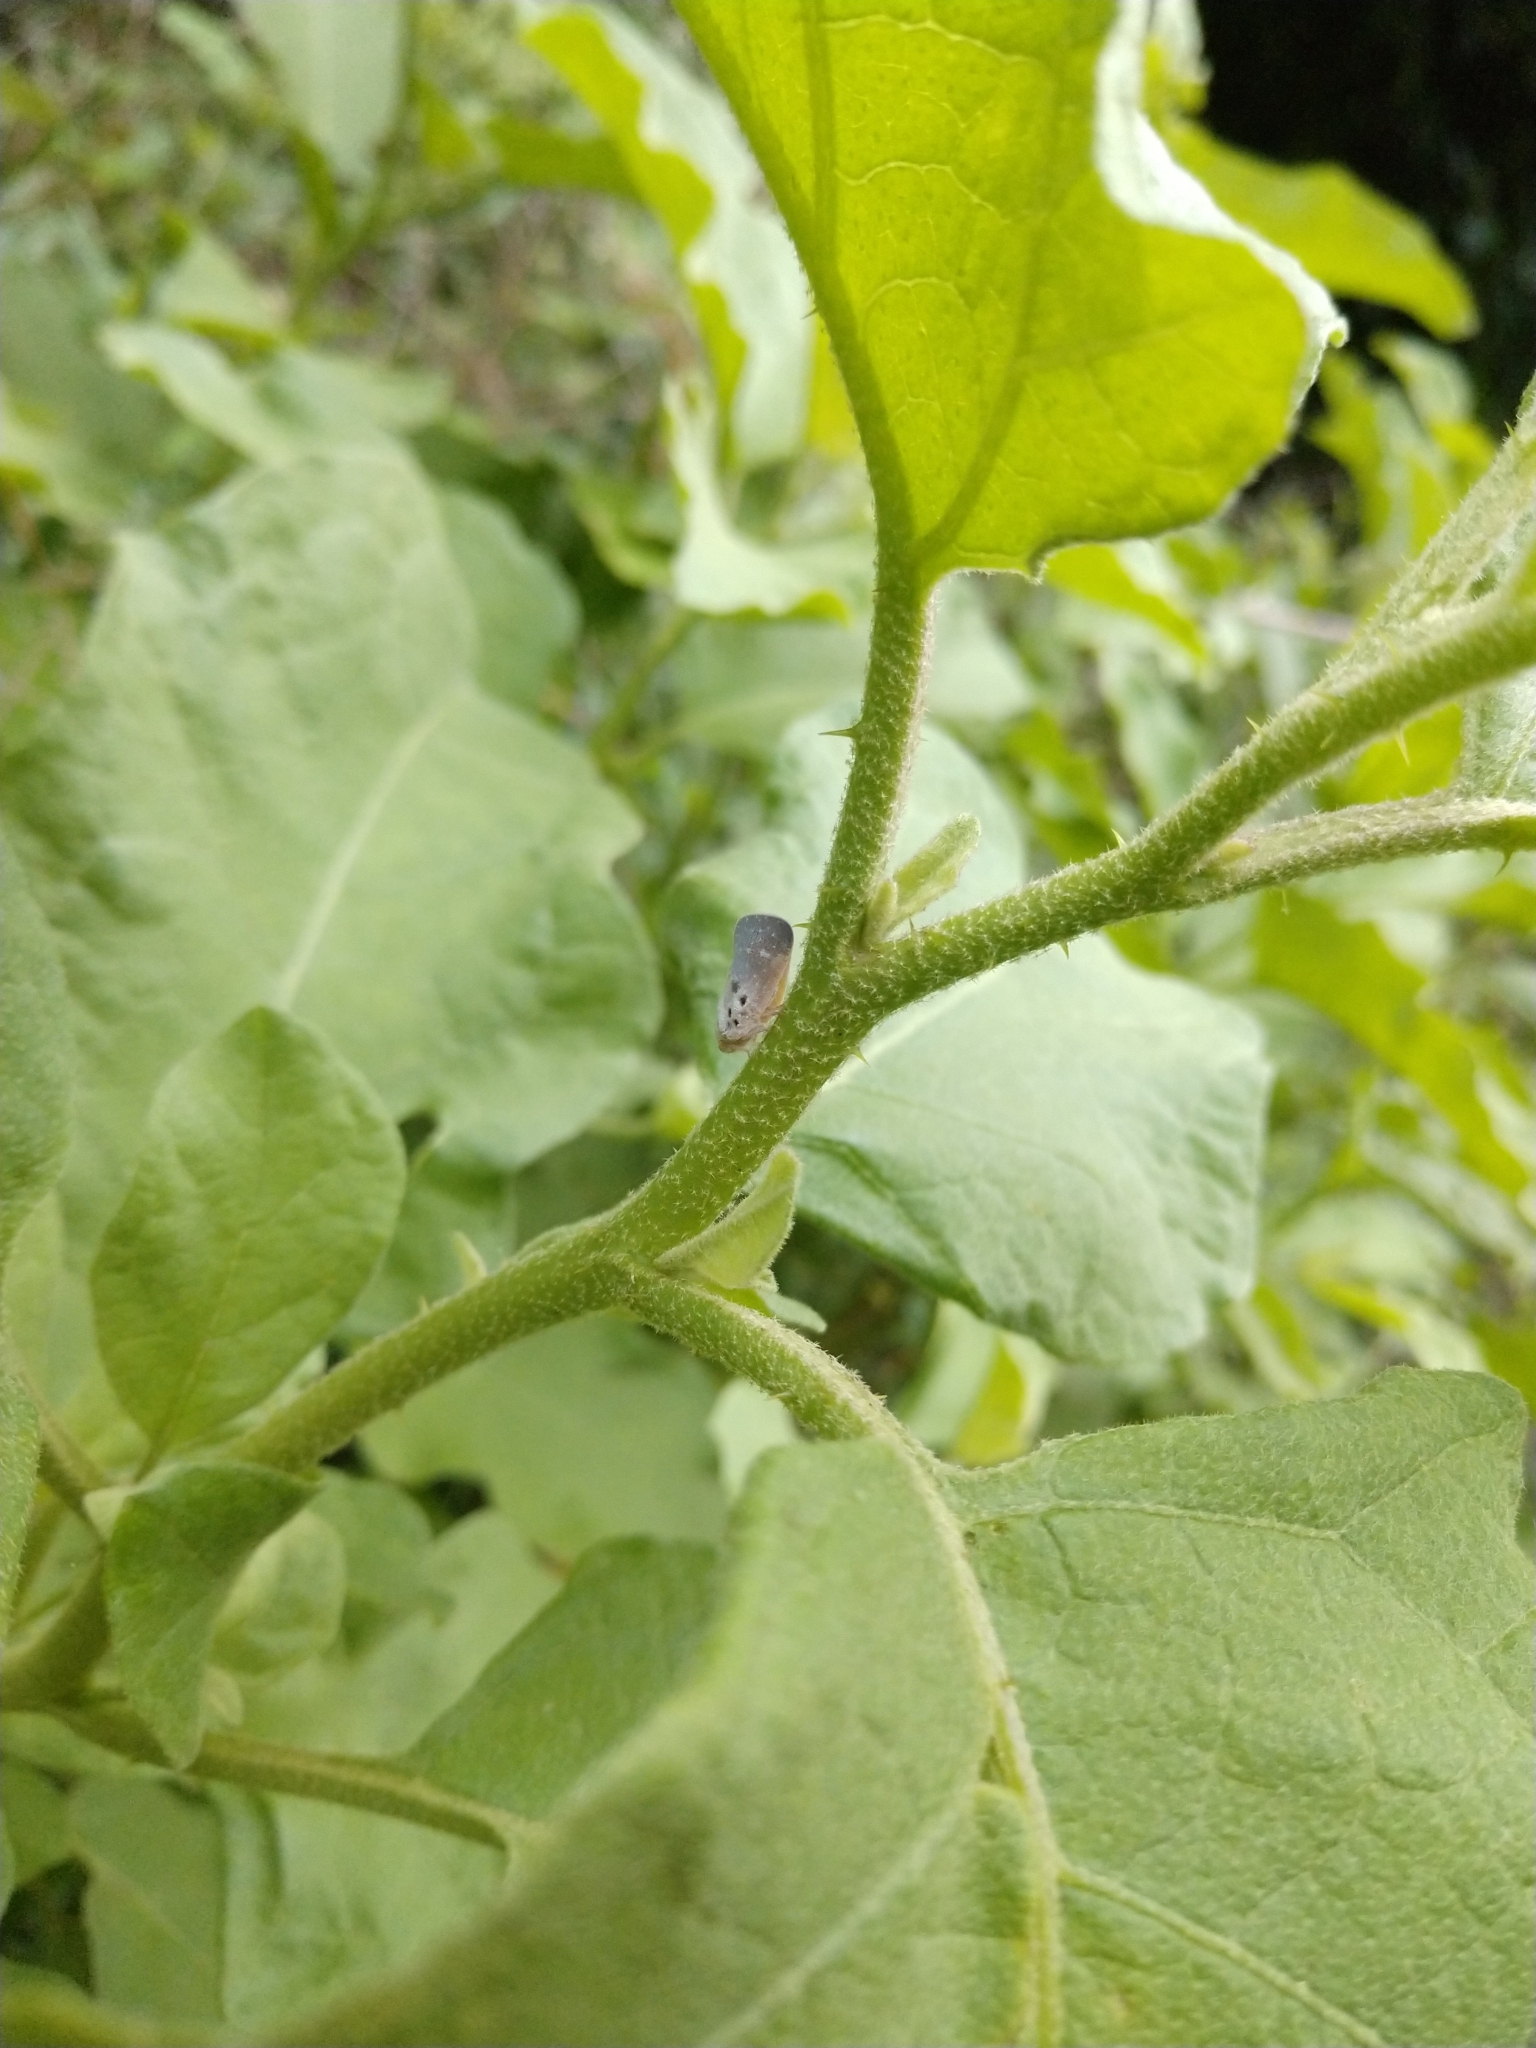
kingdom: Animalia
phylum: Arthropoda
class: Insecta
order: Hemiptera
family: Flatidae
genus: Metcalfa
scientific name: Metcalfa pruinosa
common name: Citrus flatid planthopper
